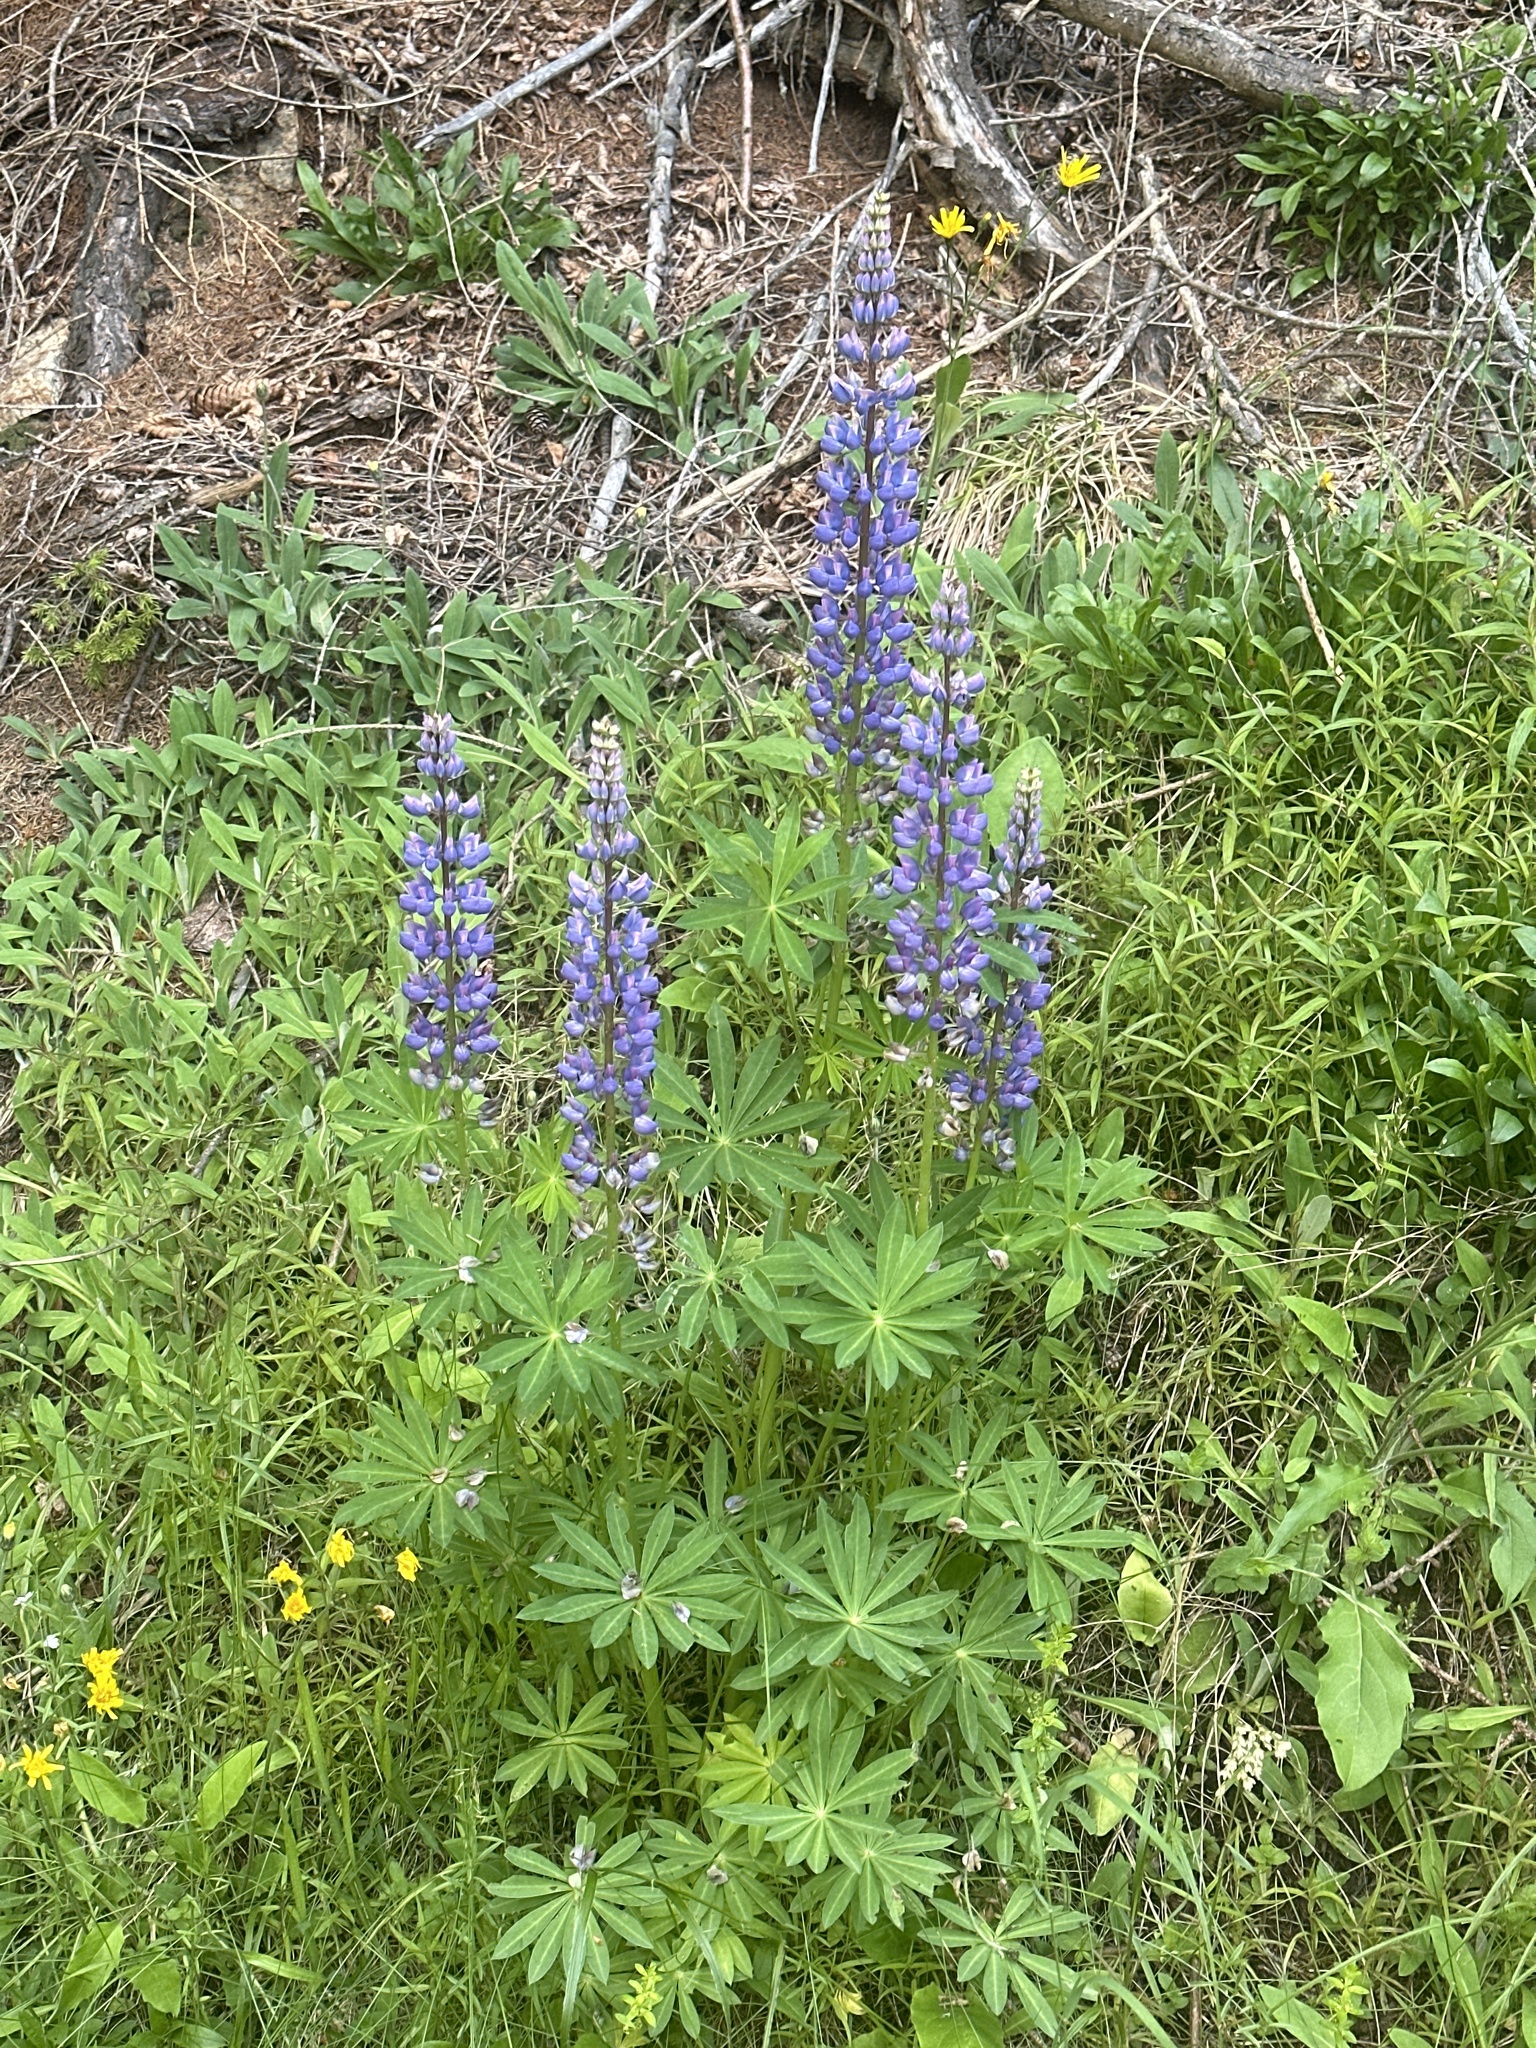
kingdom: Plantae
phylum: Tracheophyta
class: Magnoliopsida
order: Fabales
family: Fabaceae
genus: Lupinus
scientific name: Lupinus polyphyllus
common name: Garden lupin
